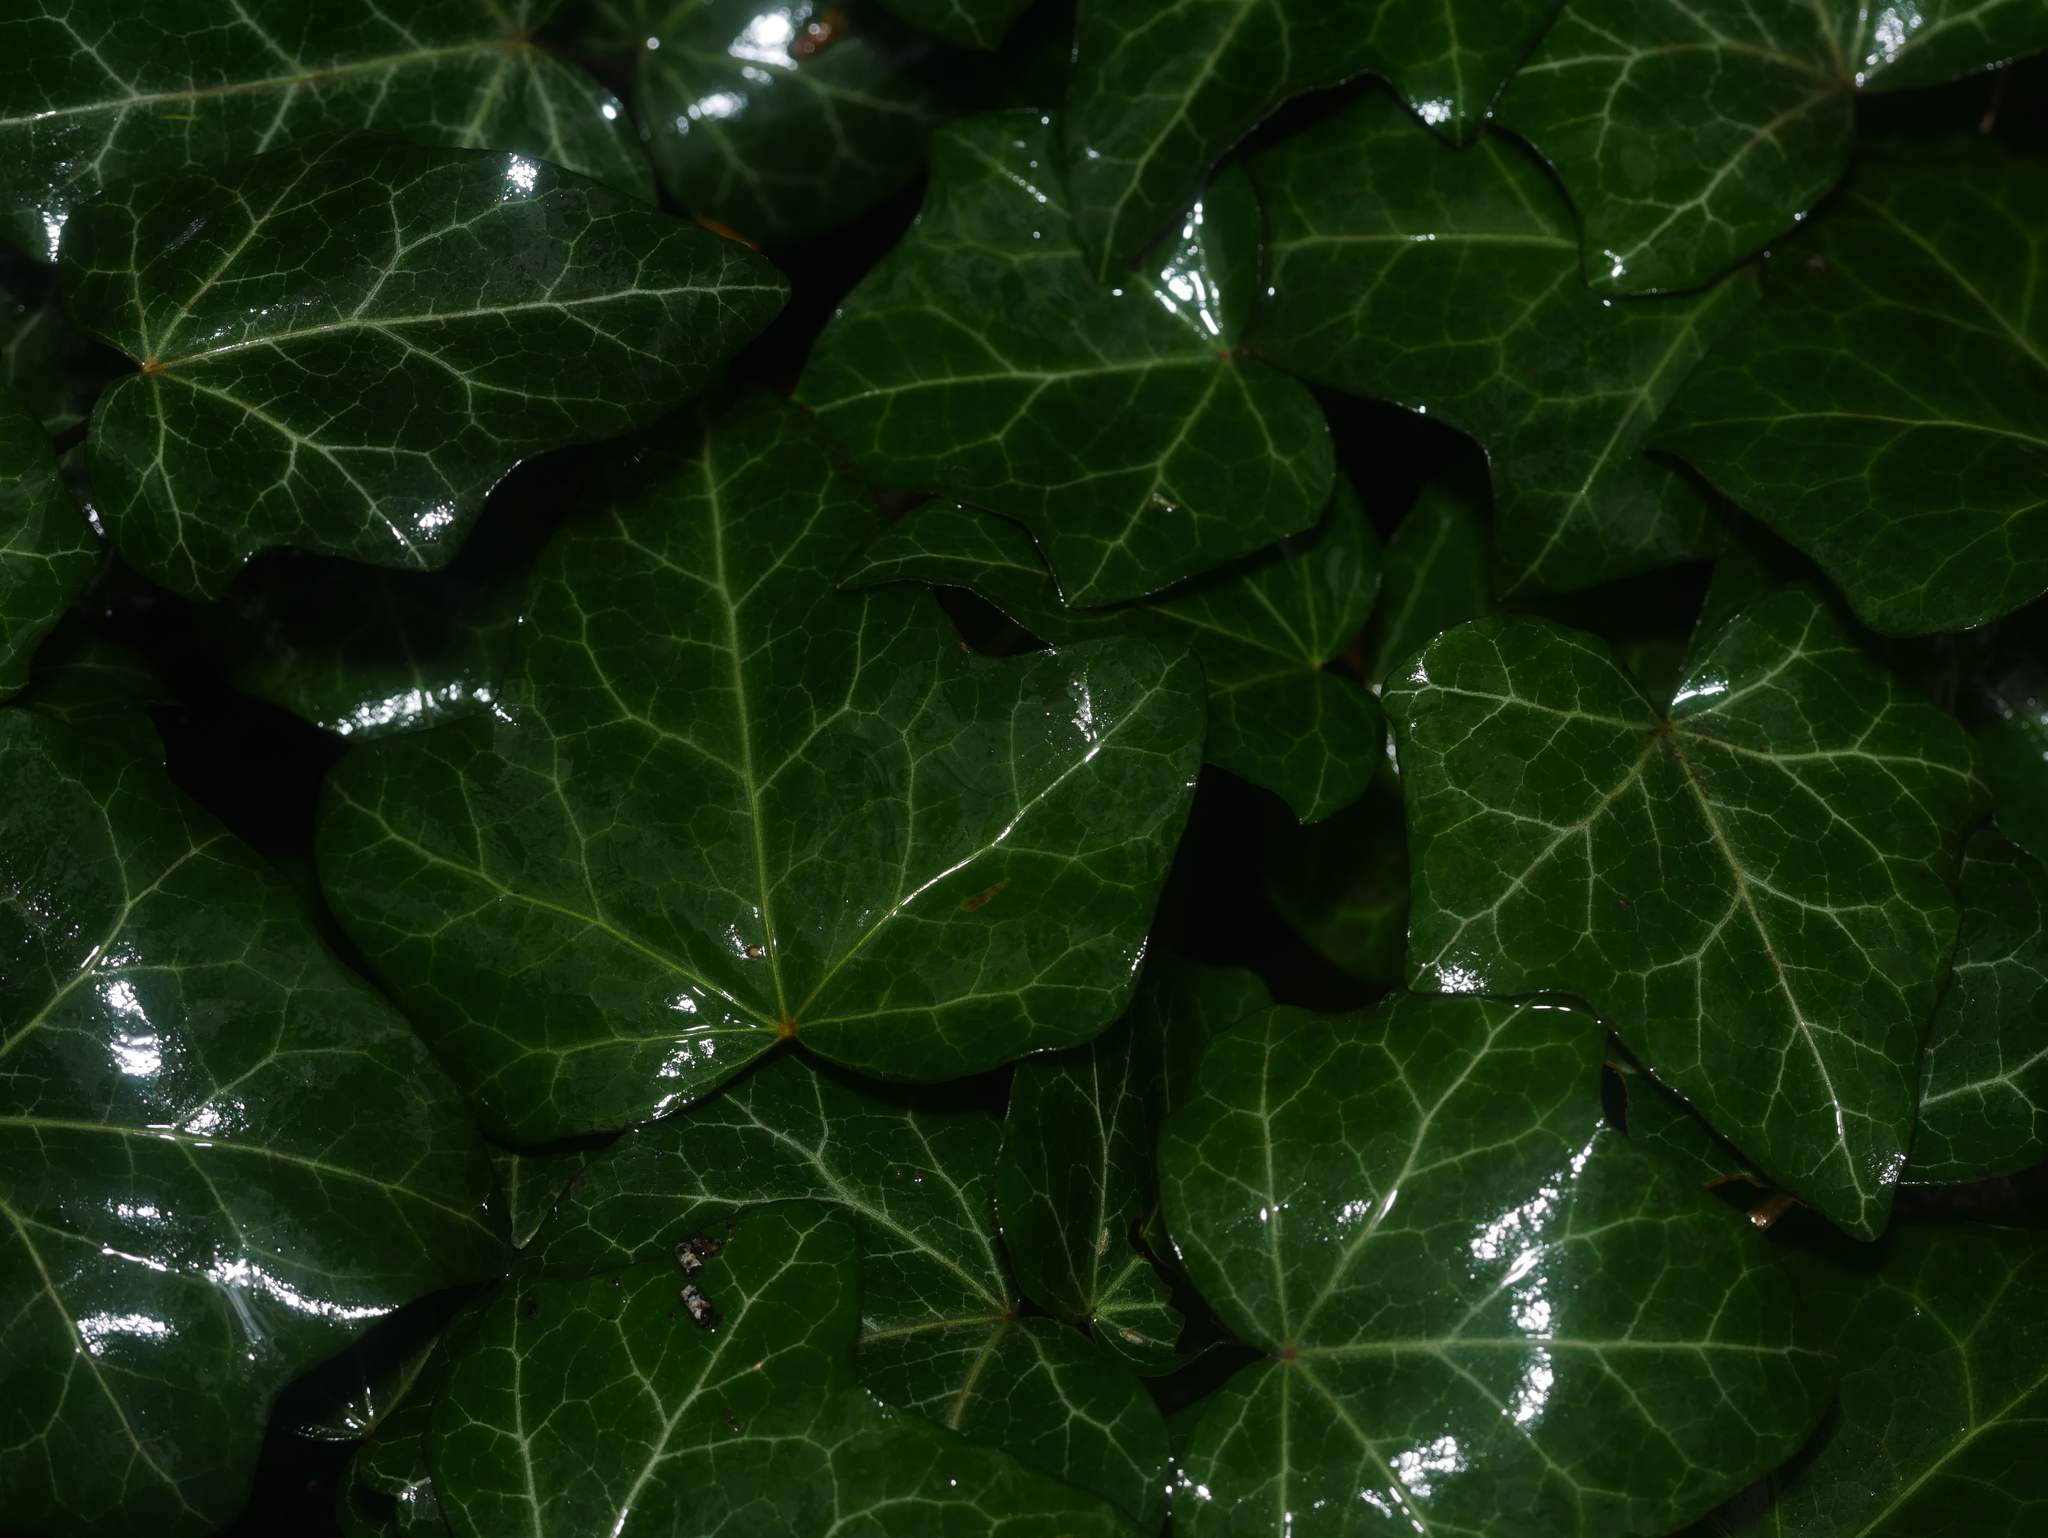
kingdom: Plantae
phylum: Tracheophyta
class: Magnoliopsida
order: Apiales
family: Araliaceae
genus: Hedera
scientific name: Hedera helix
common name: Ivy
